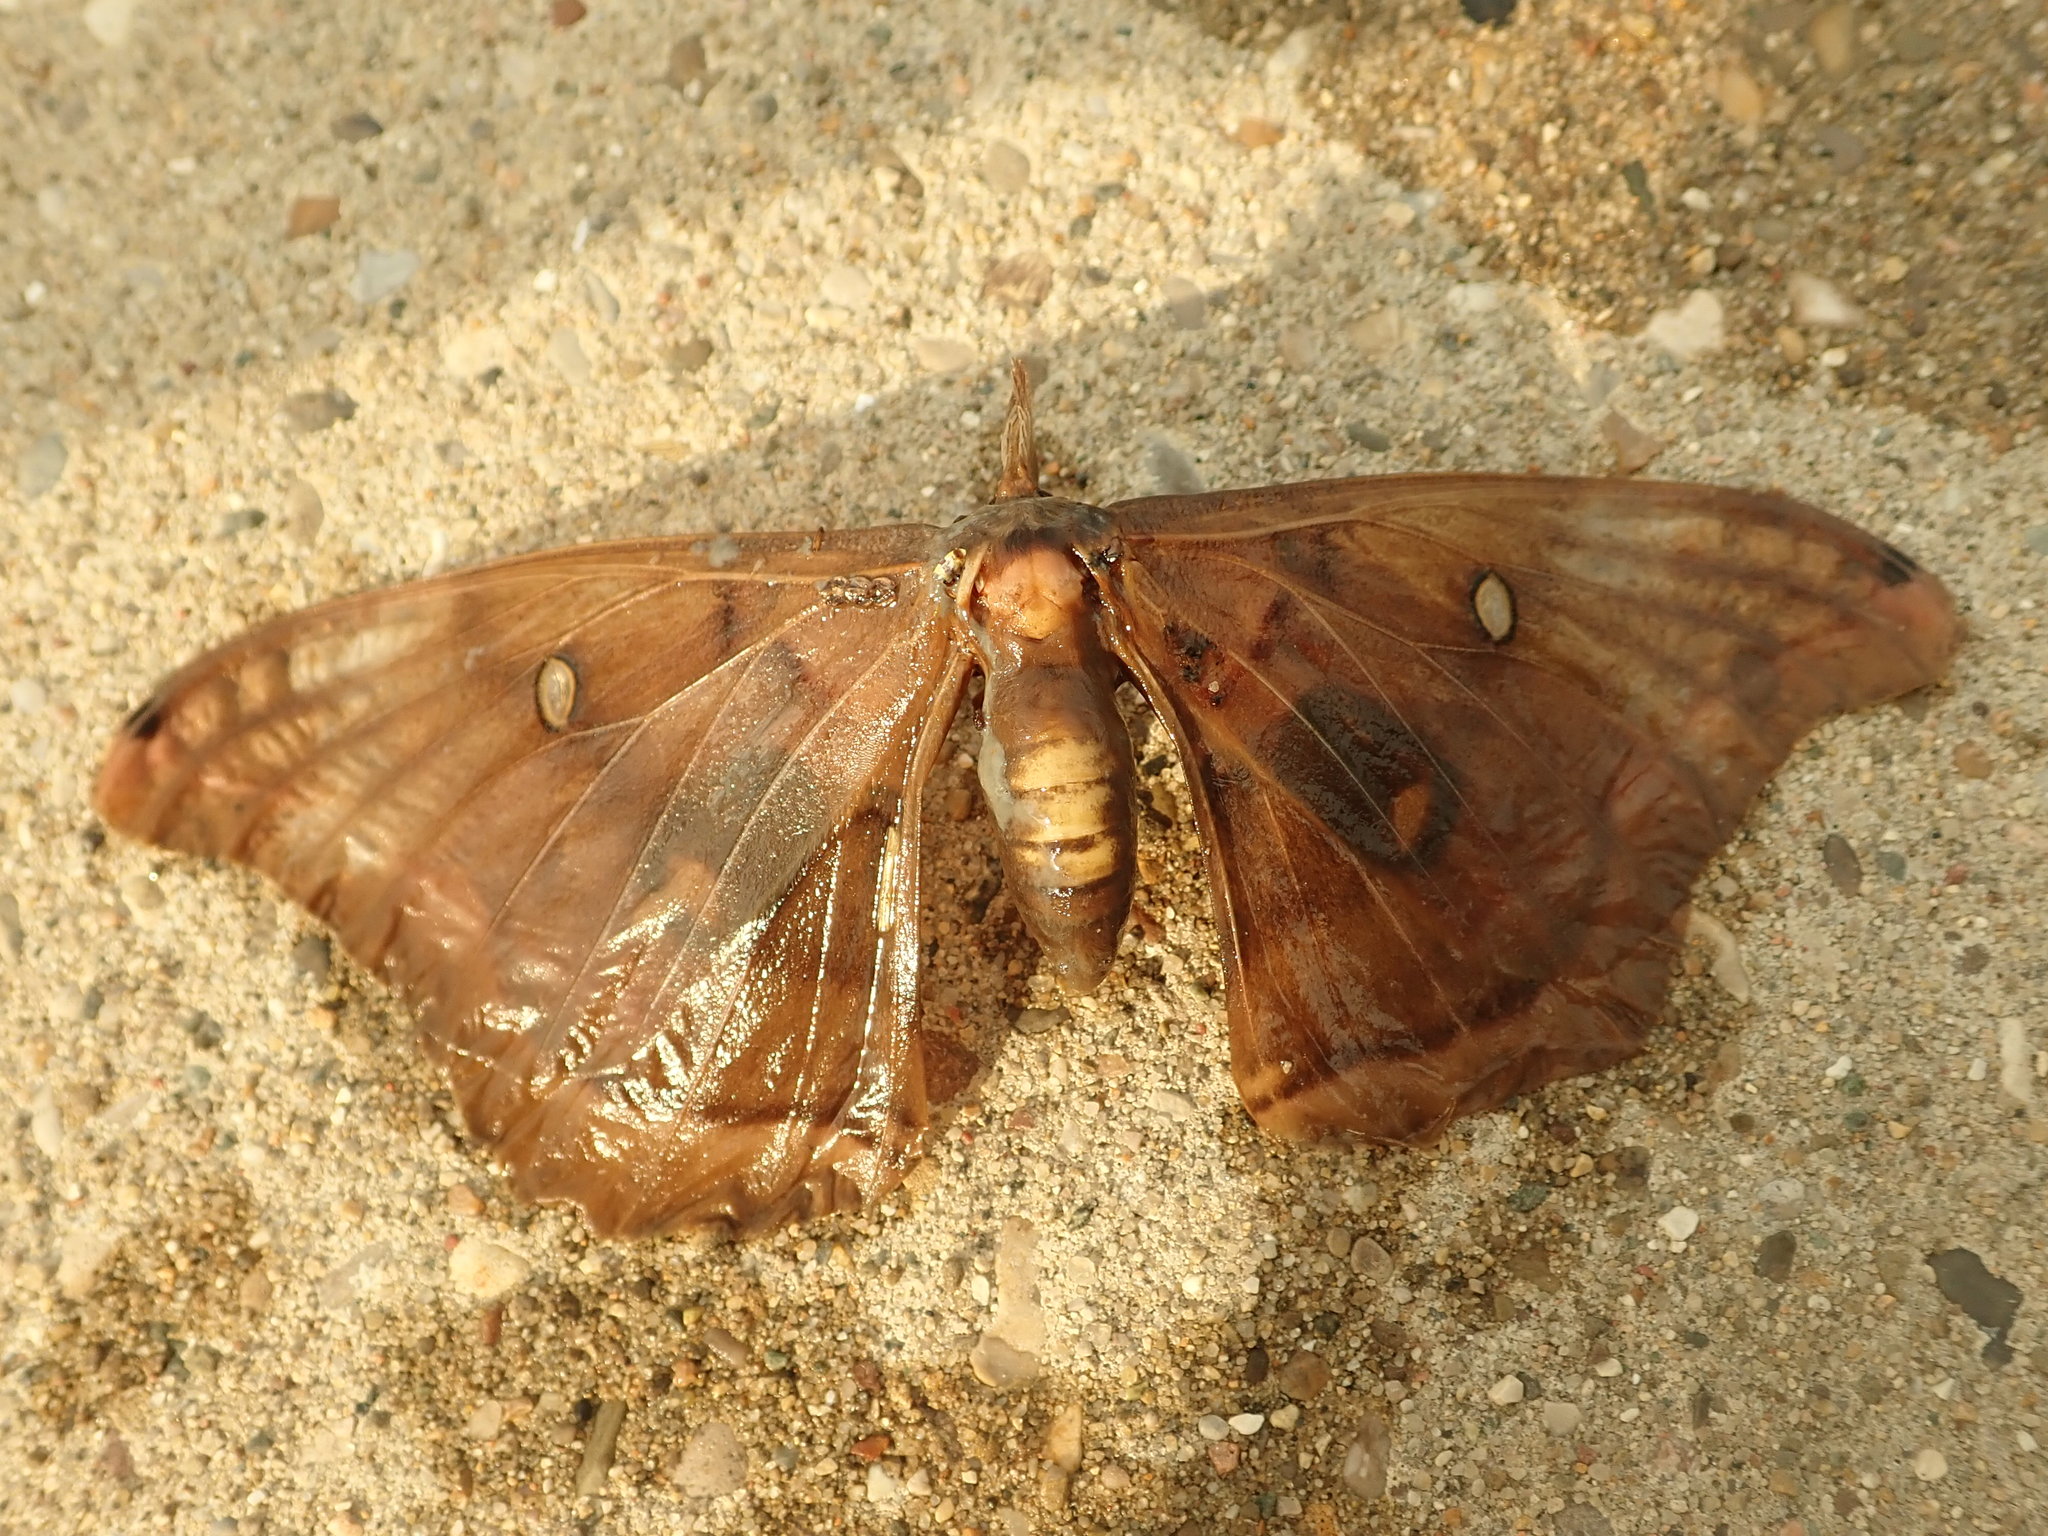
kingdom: Animalia
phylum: Arthropoda
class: Insecta
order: Lepidoptera
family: Saturniidae
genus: Antheraea
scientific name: Antheraea polyphemus
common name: Polyphemus moth
